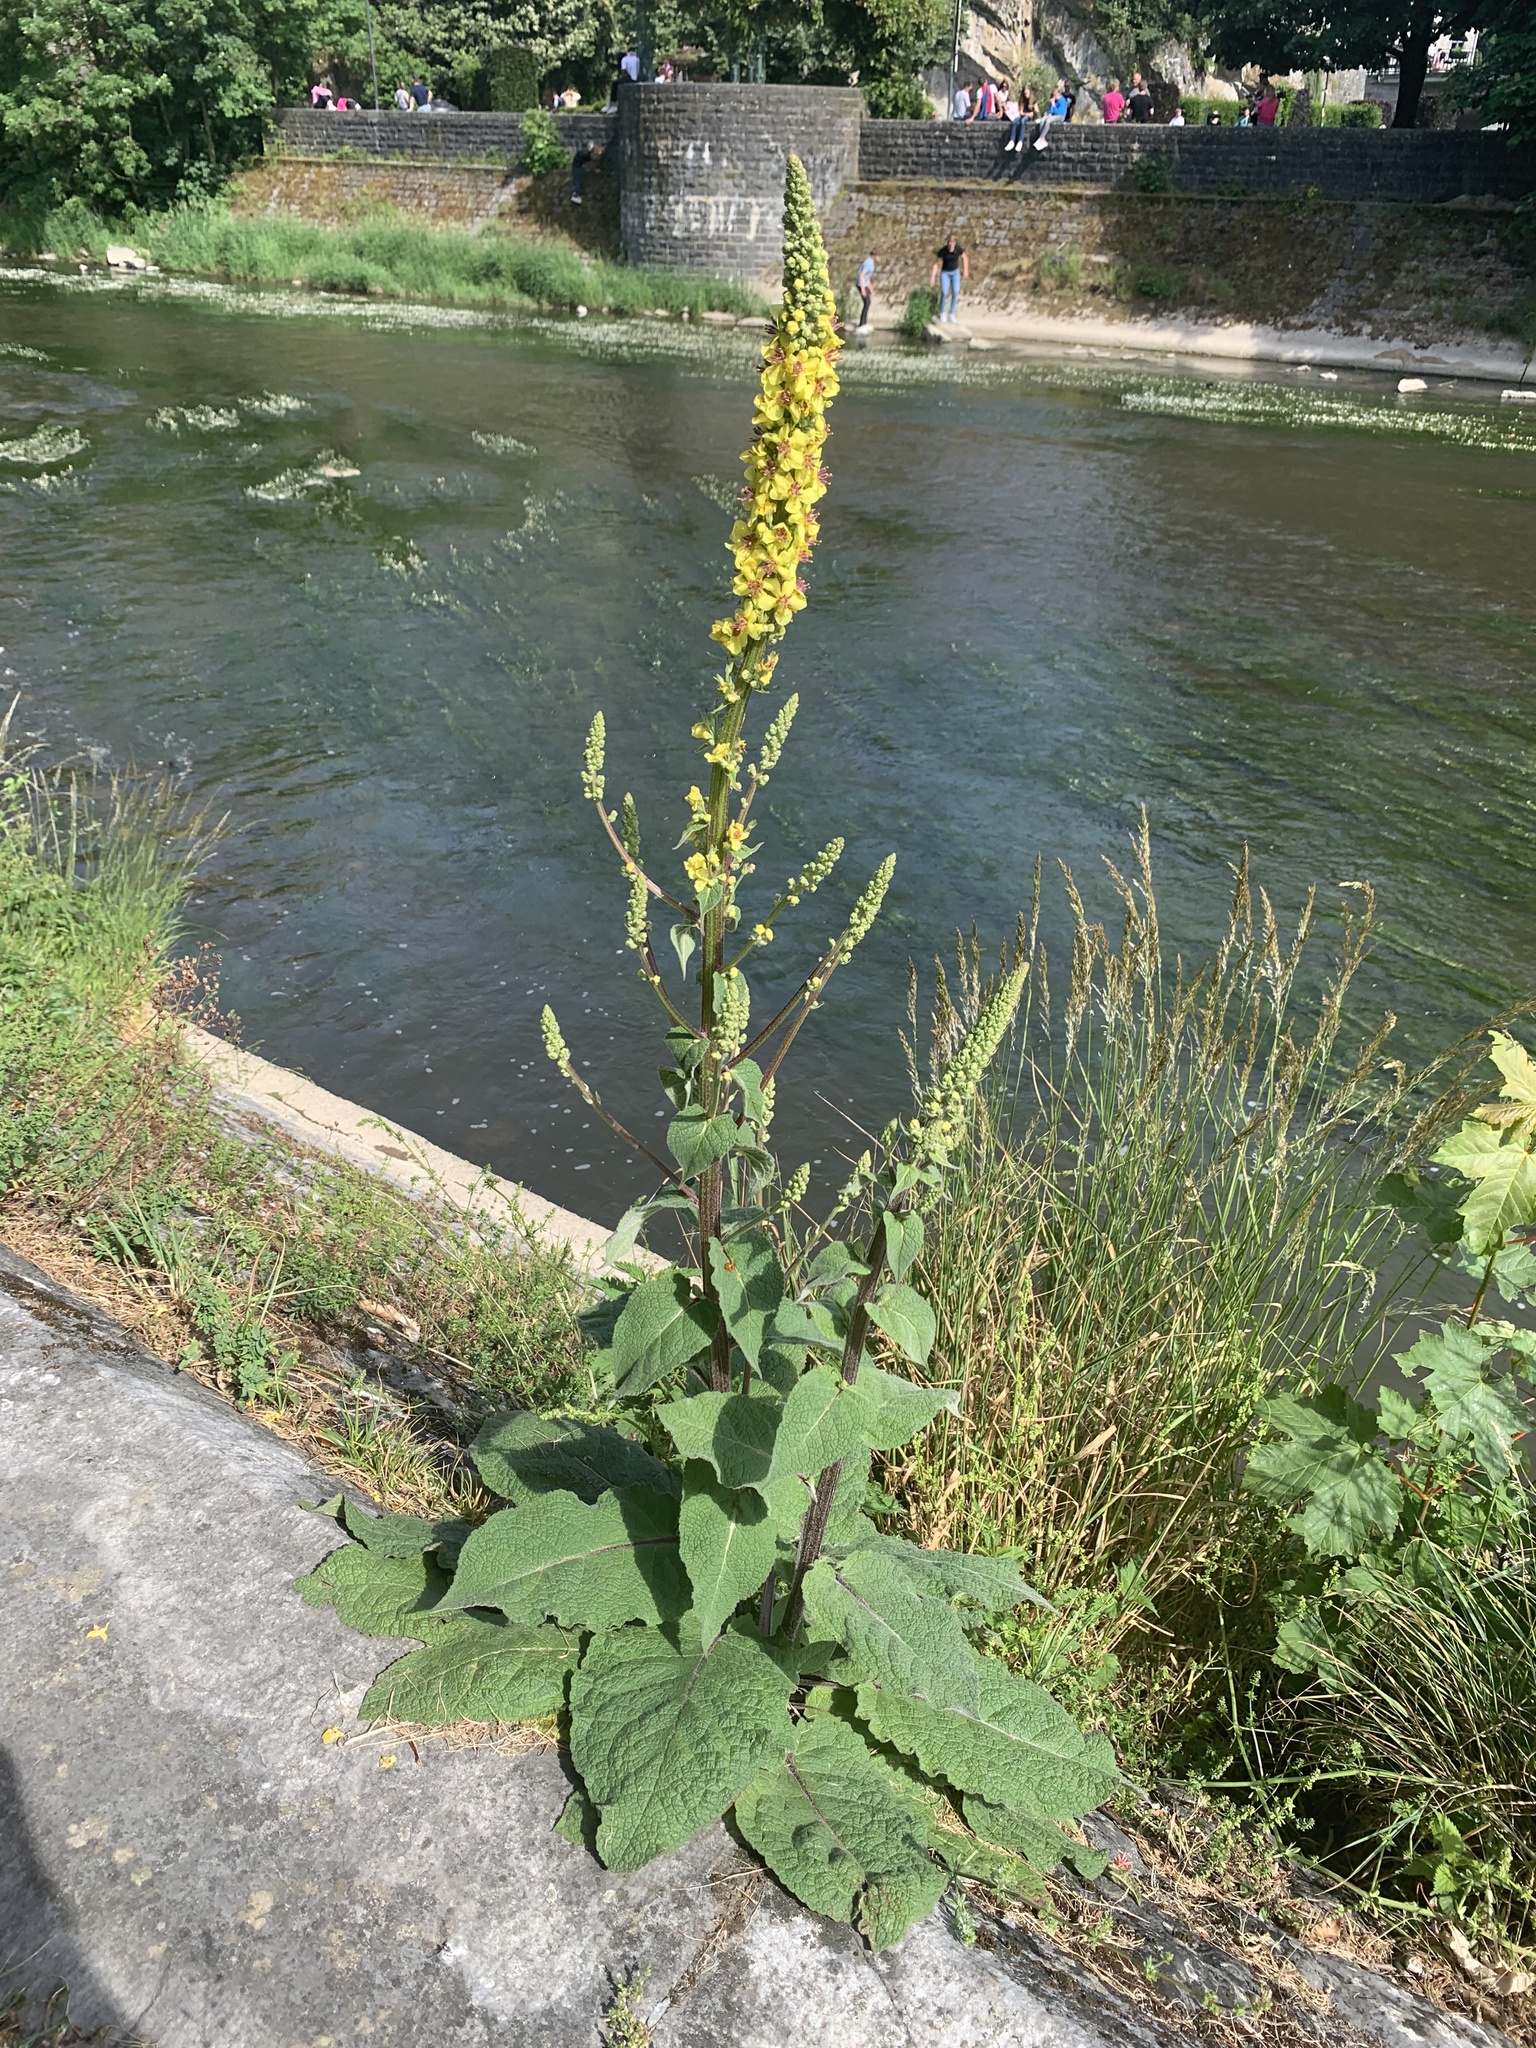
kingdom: Plantae
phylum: Tracheophyta
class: Magnoliopsida
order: Lamiales
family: Scrophulariaceae
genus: Verbascum
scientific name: Verbascum nigrum
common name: Dark mullein
